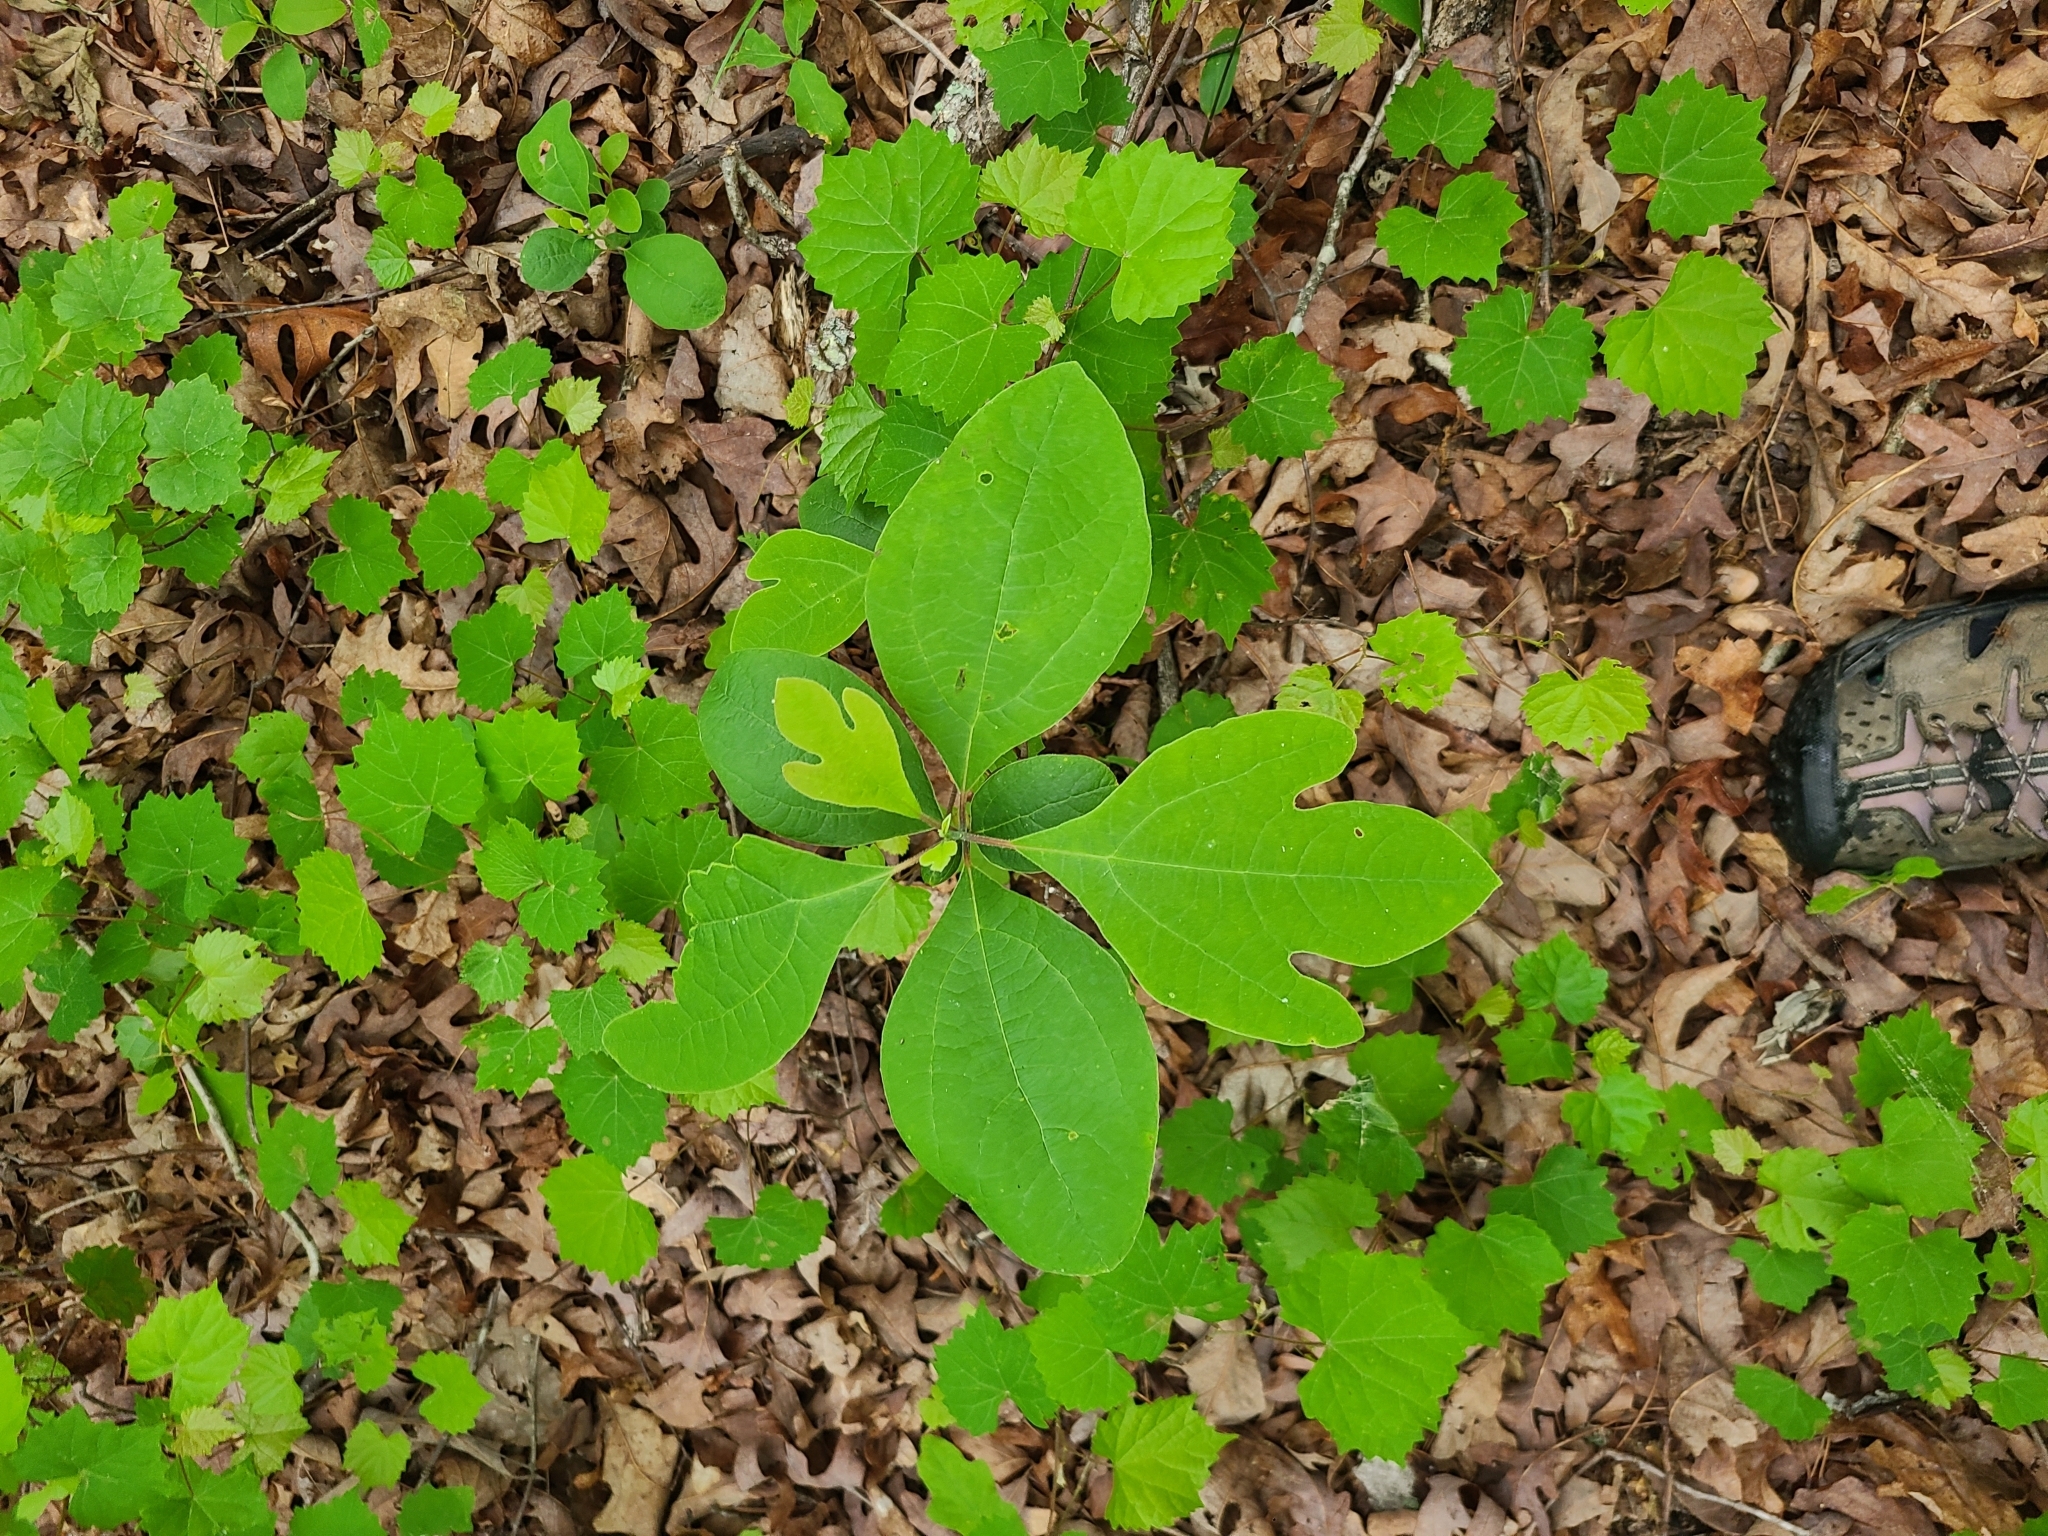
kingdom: Plantae
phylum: Tracheophyta
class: Magnoliopsida
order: Laurales
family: Lauraceae
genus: Sassafras
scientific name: Sassafras albidum
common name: Sassafras
